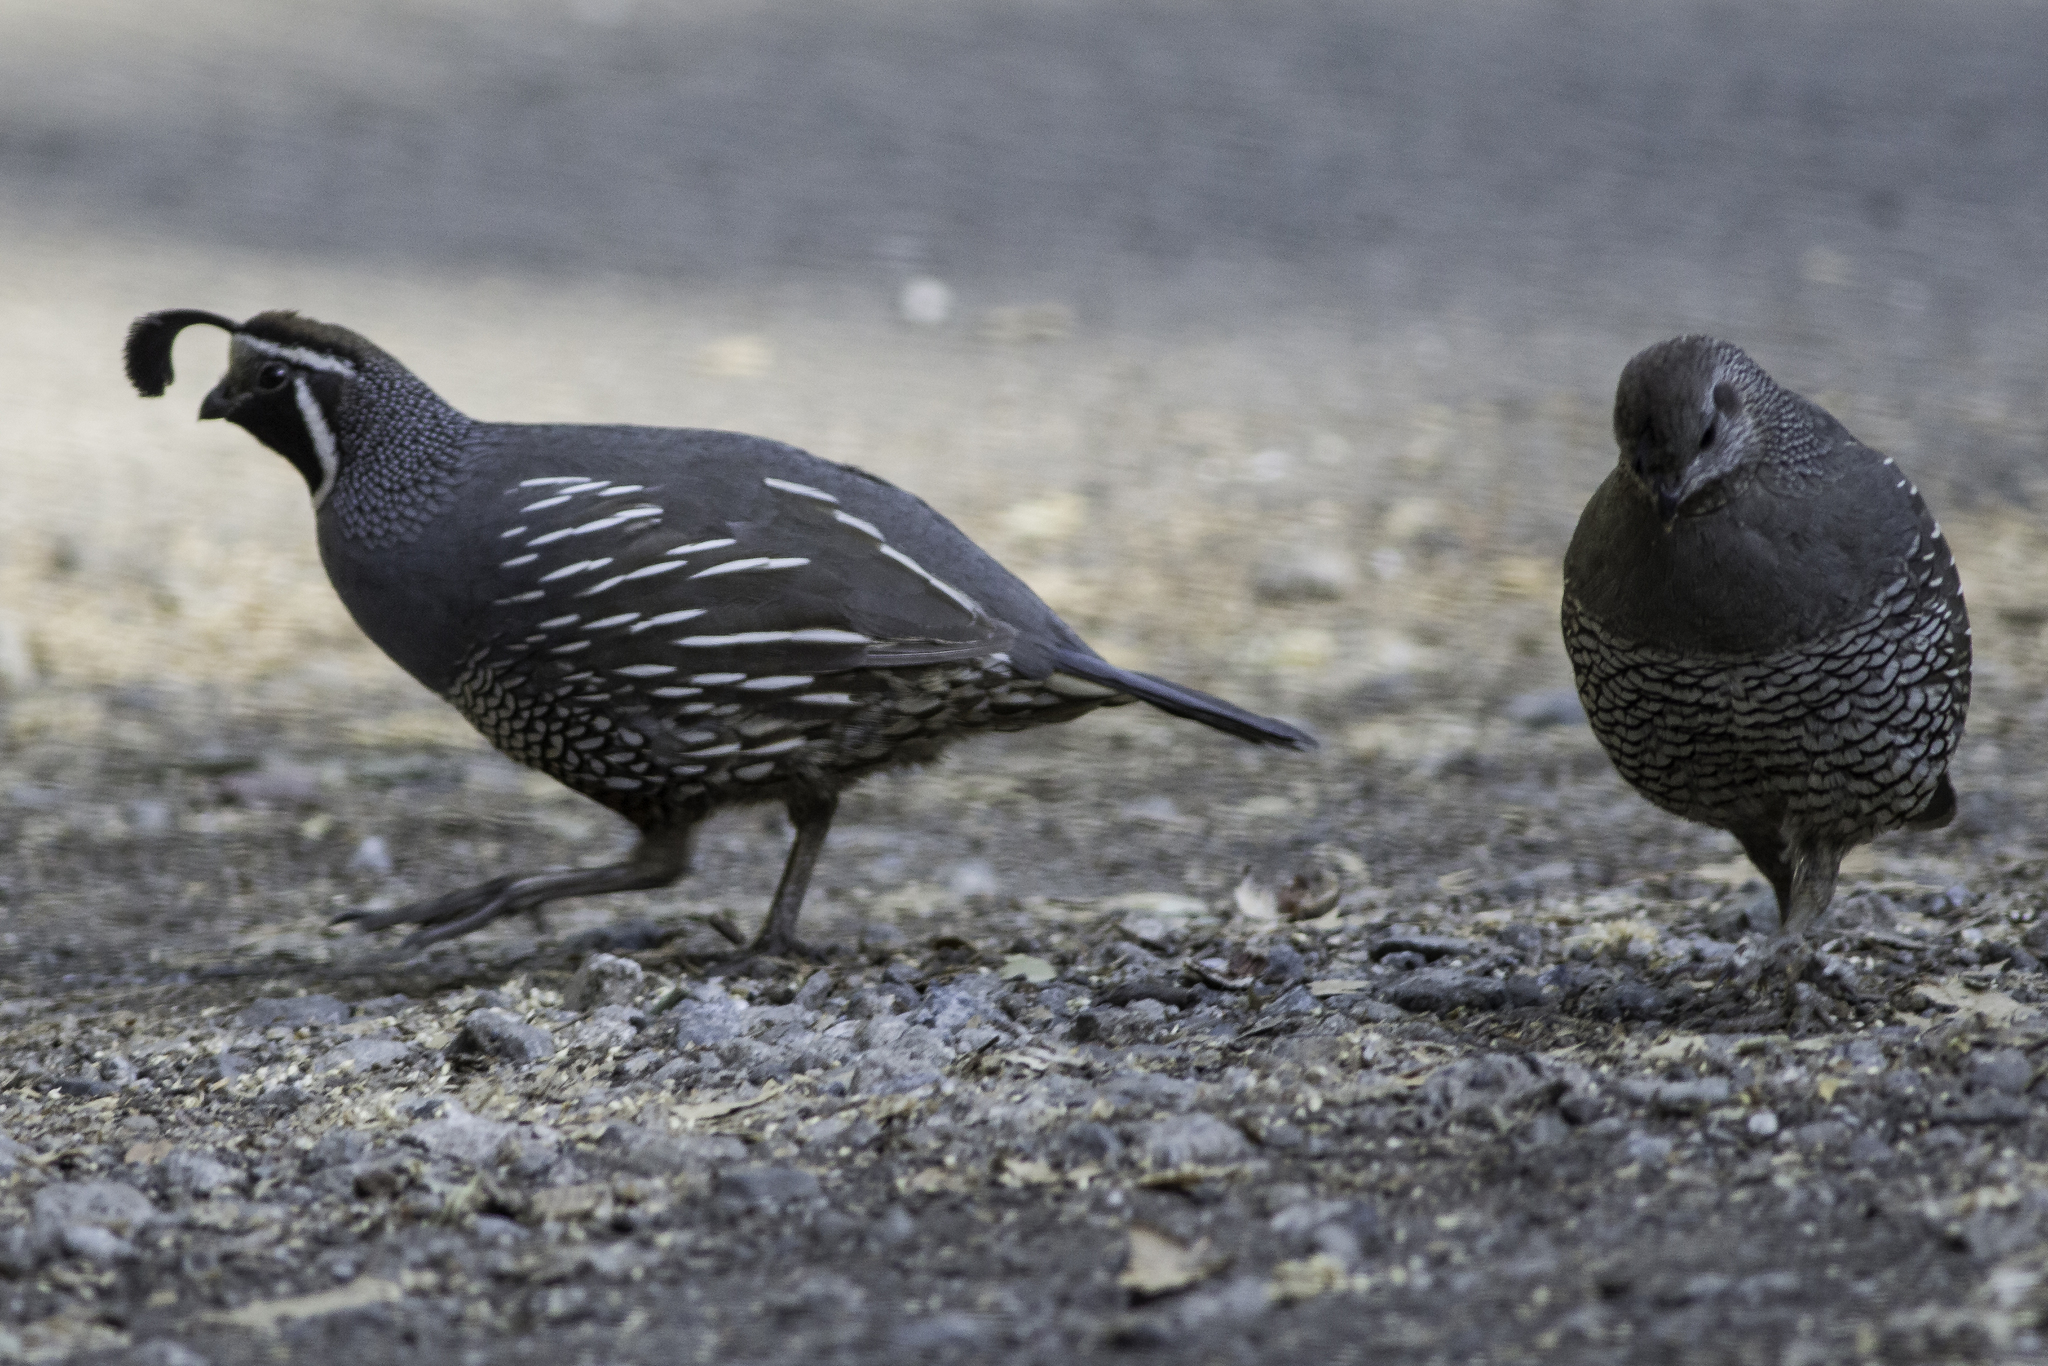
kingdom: Animalia
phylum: Chordata
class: Aves
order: Galliformes
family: Odontophoridae
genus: Callipepla
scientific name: Callipepla californica
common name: California quail
